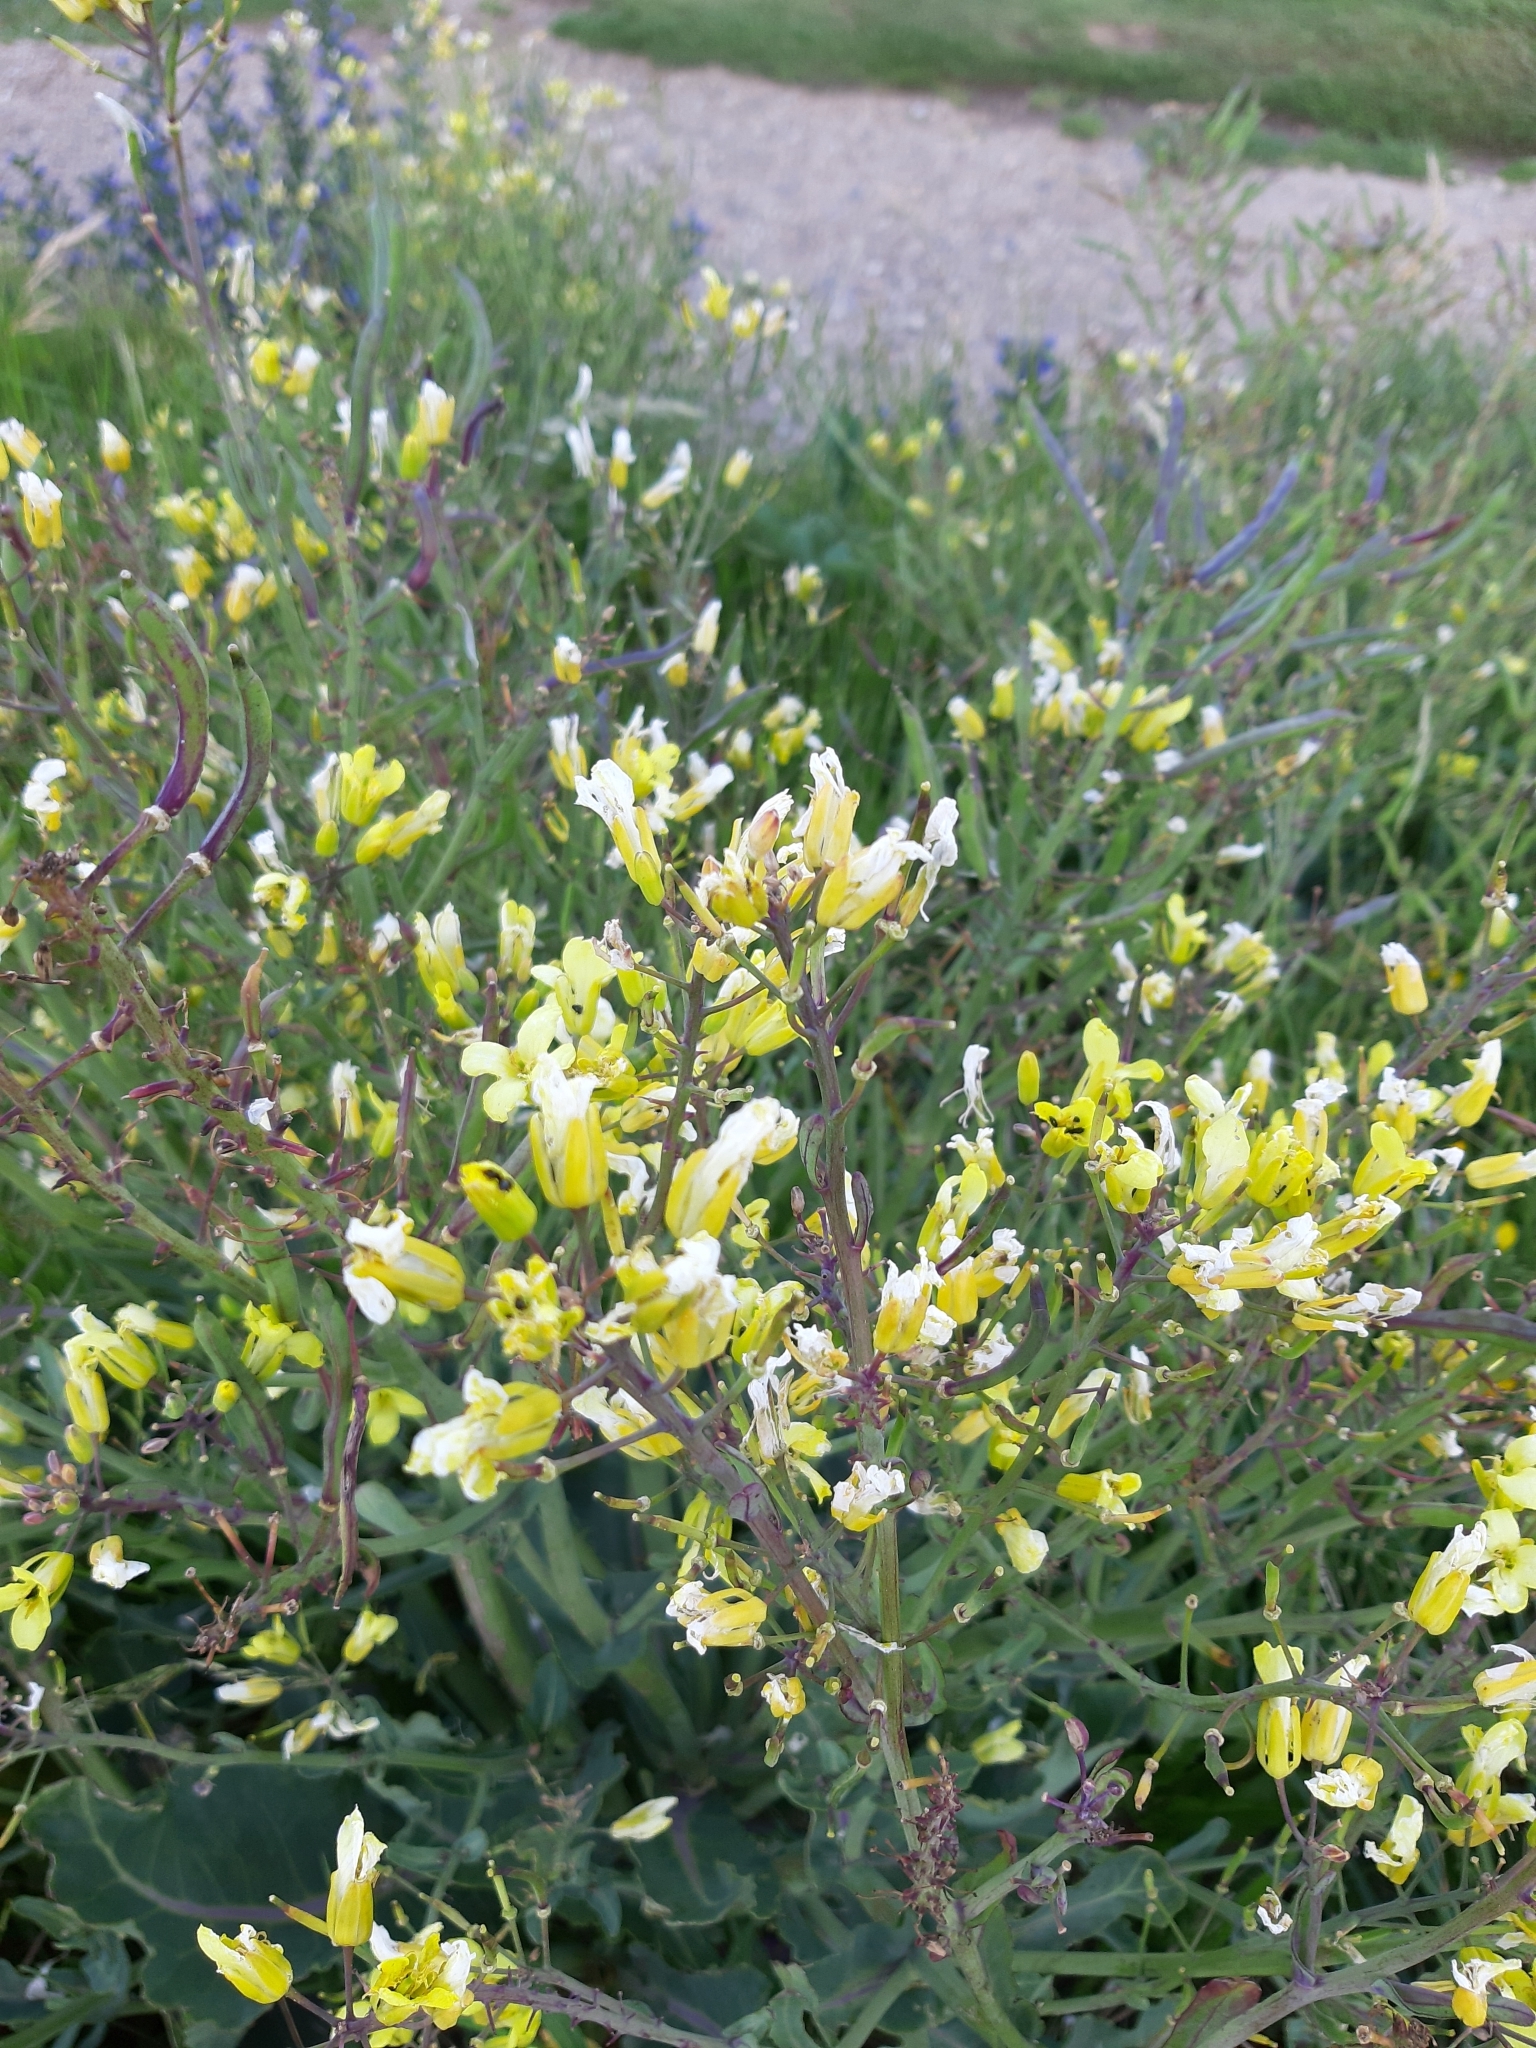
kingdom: Plantae
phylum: Tracheophyta
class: Magnoliopsida
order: Brassicales
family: Brassicaceae
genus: Brassica
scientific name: Brassica oleracea
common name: Cabbage
